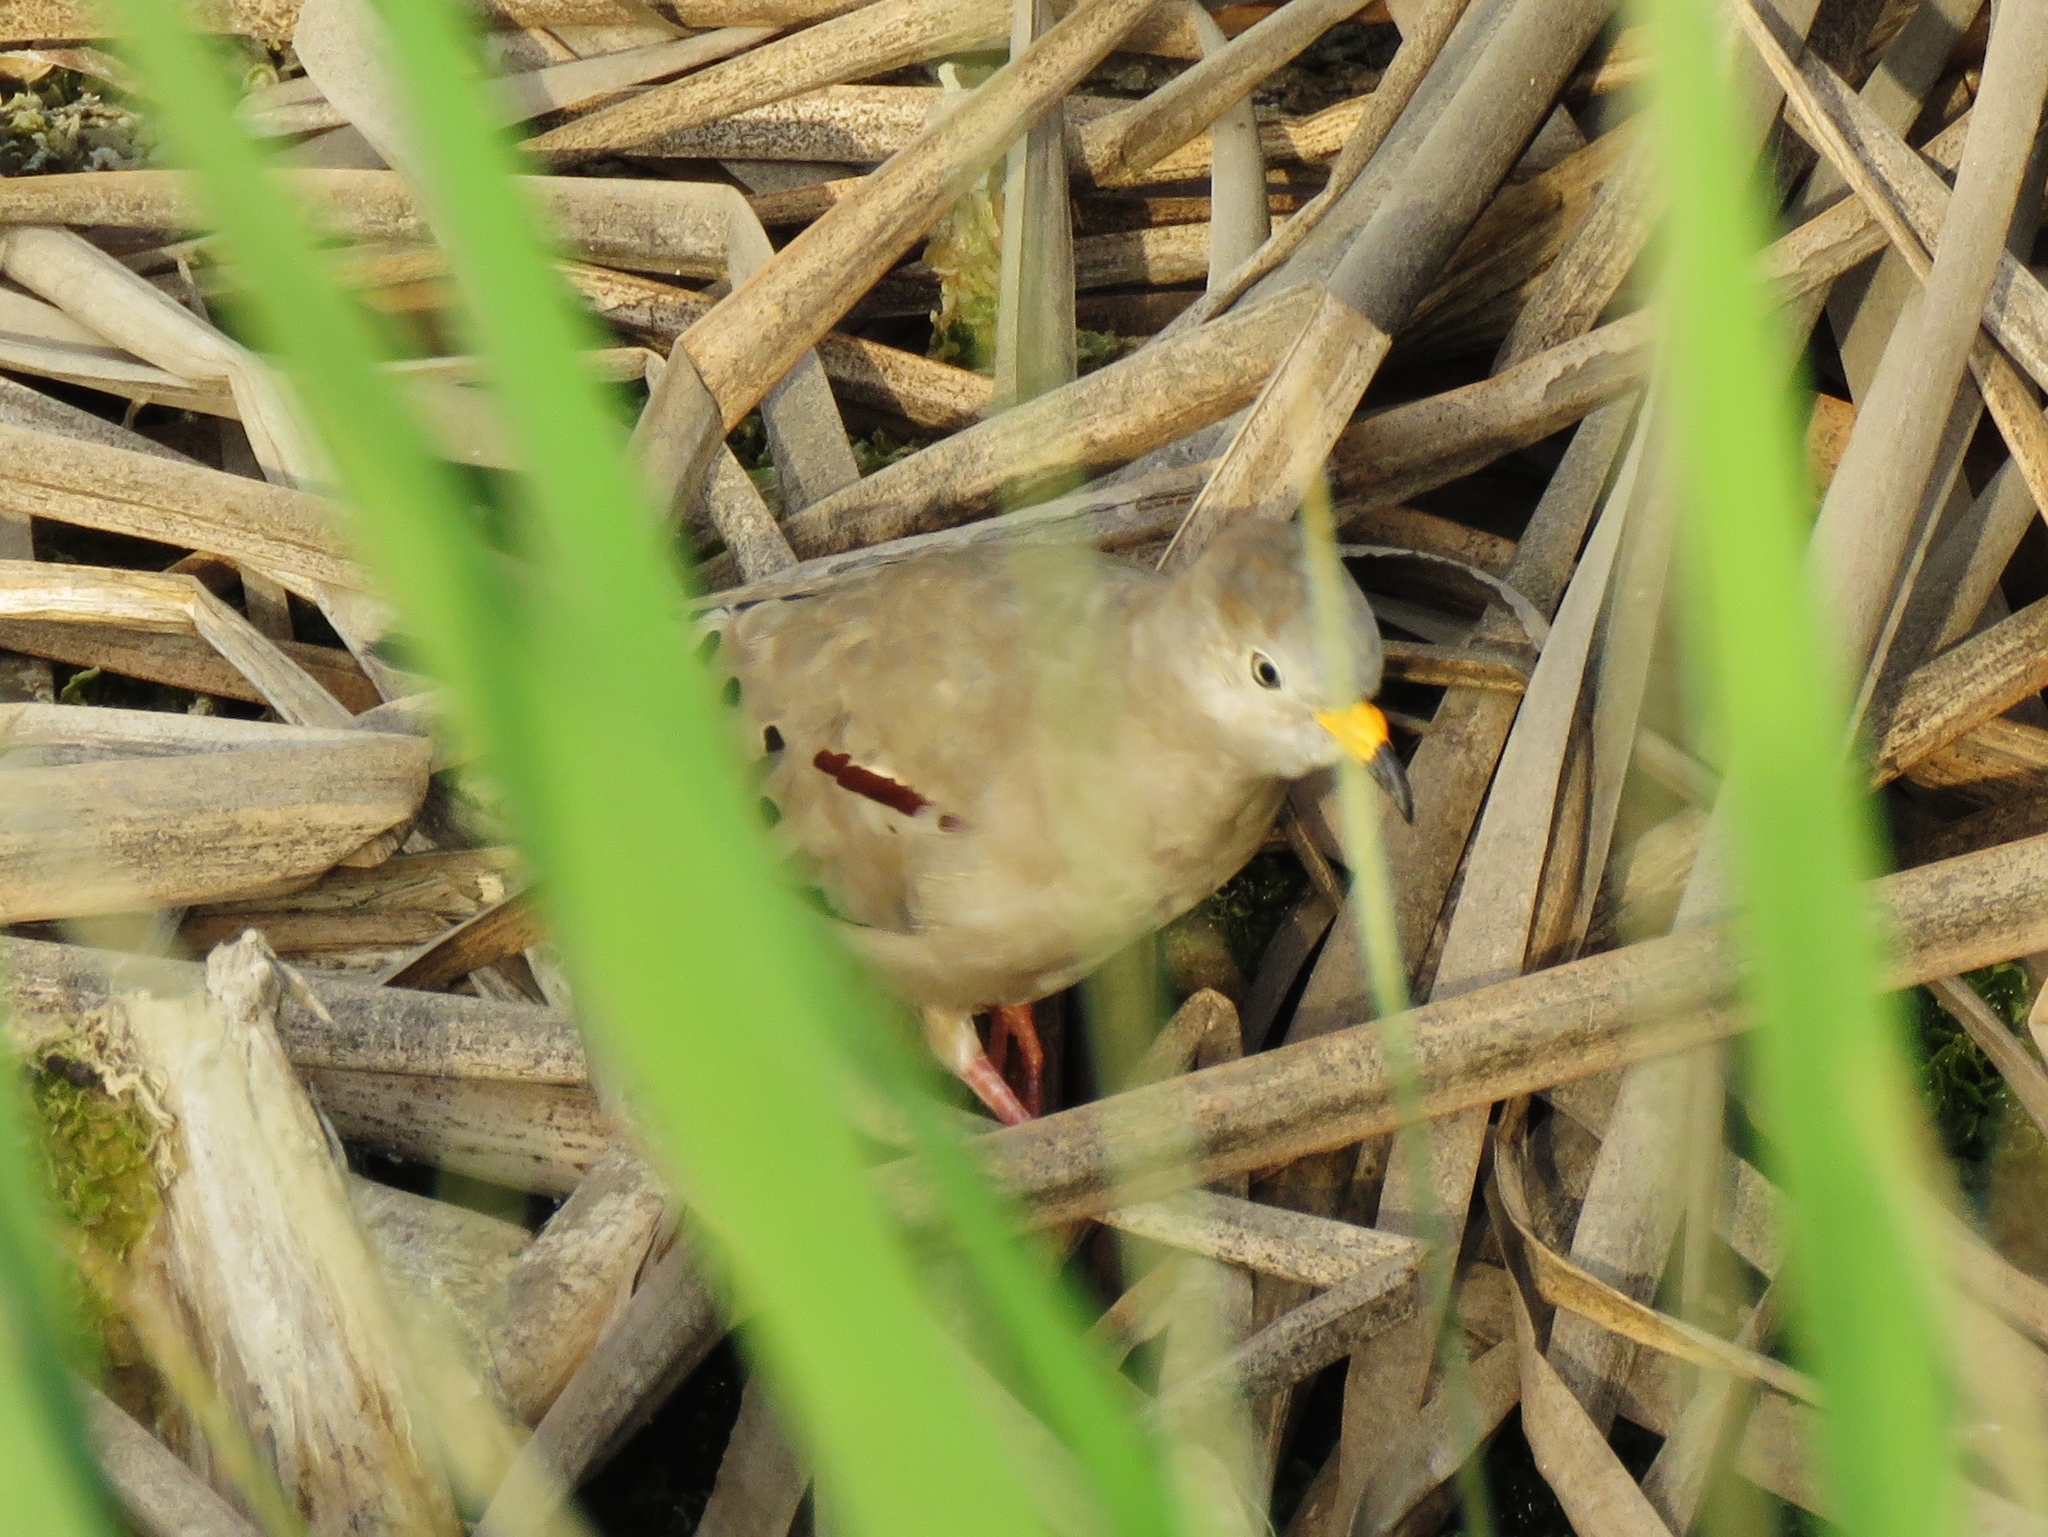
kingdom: Animalia
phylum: Chordata
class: Aves
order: Columbiformes
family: Columbidae
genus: Columbina
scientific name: Columbina cruziana
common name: Croaking ground dove
